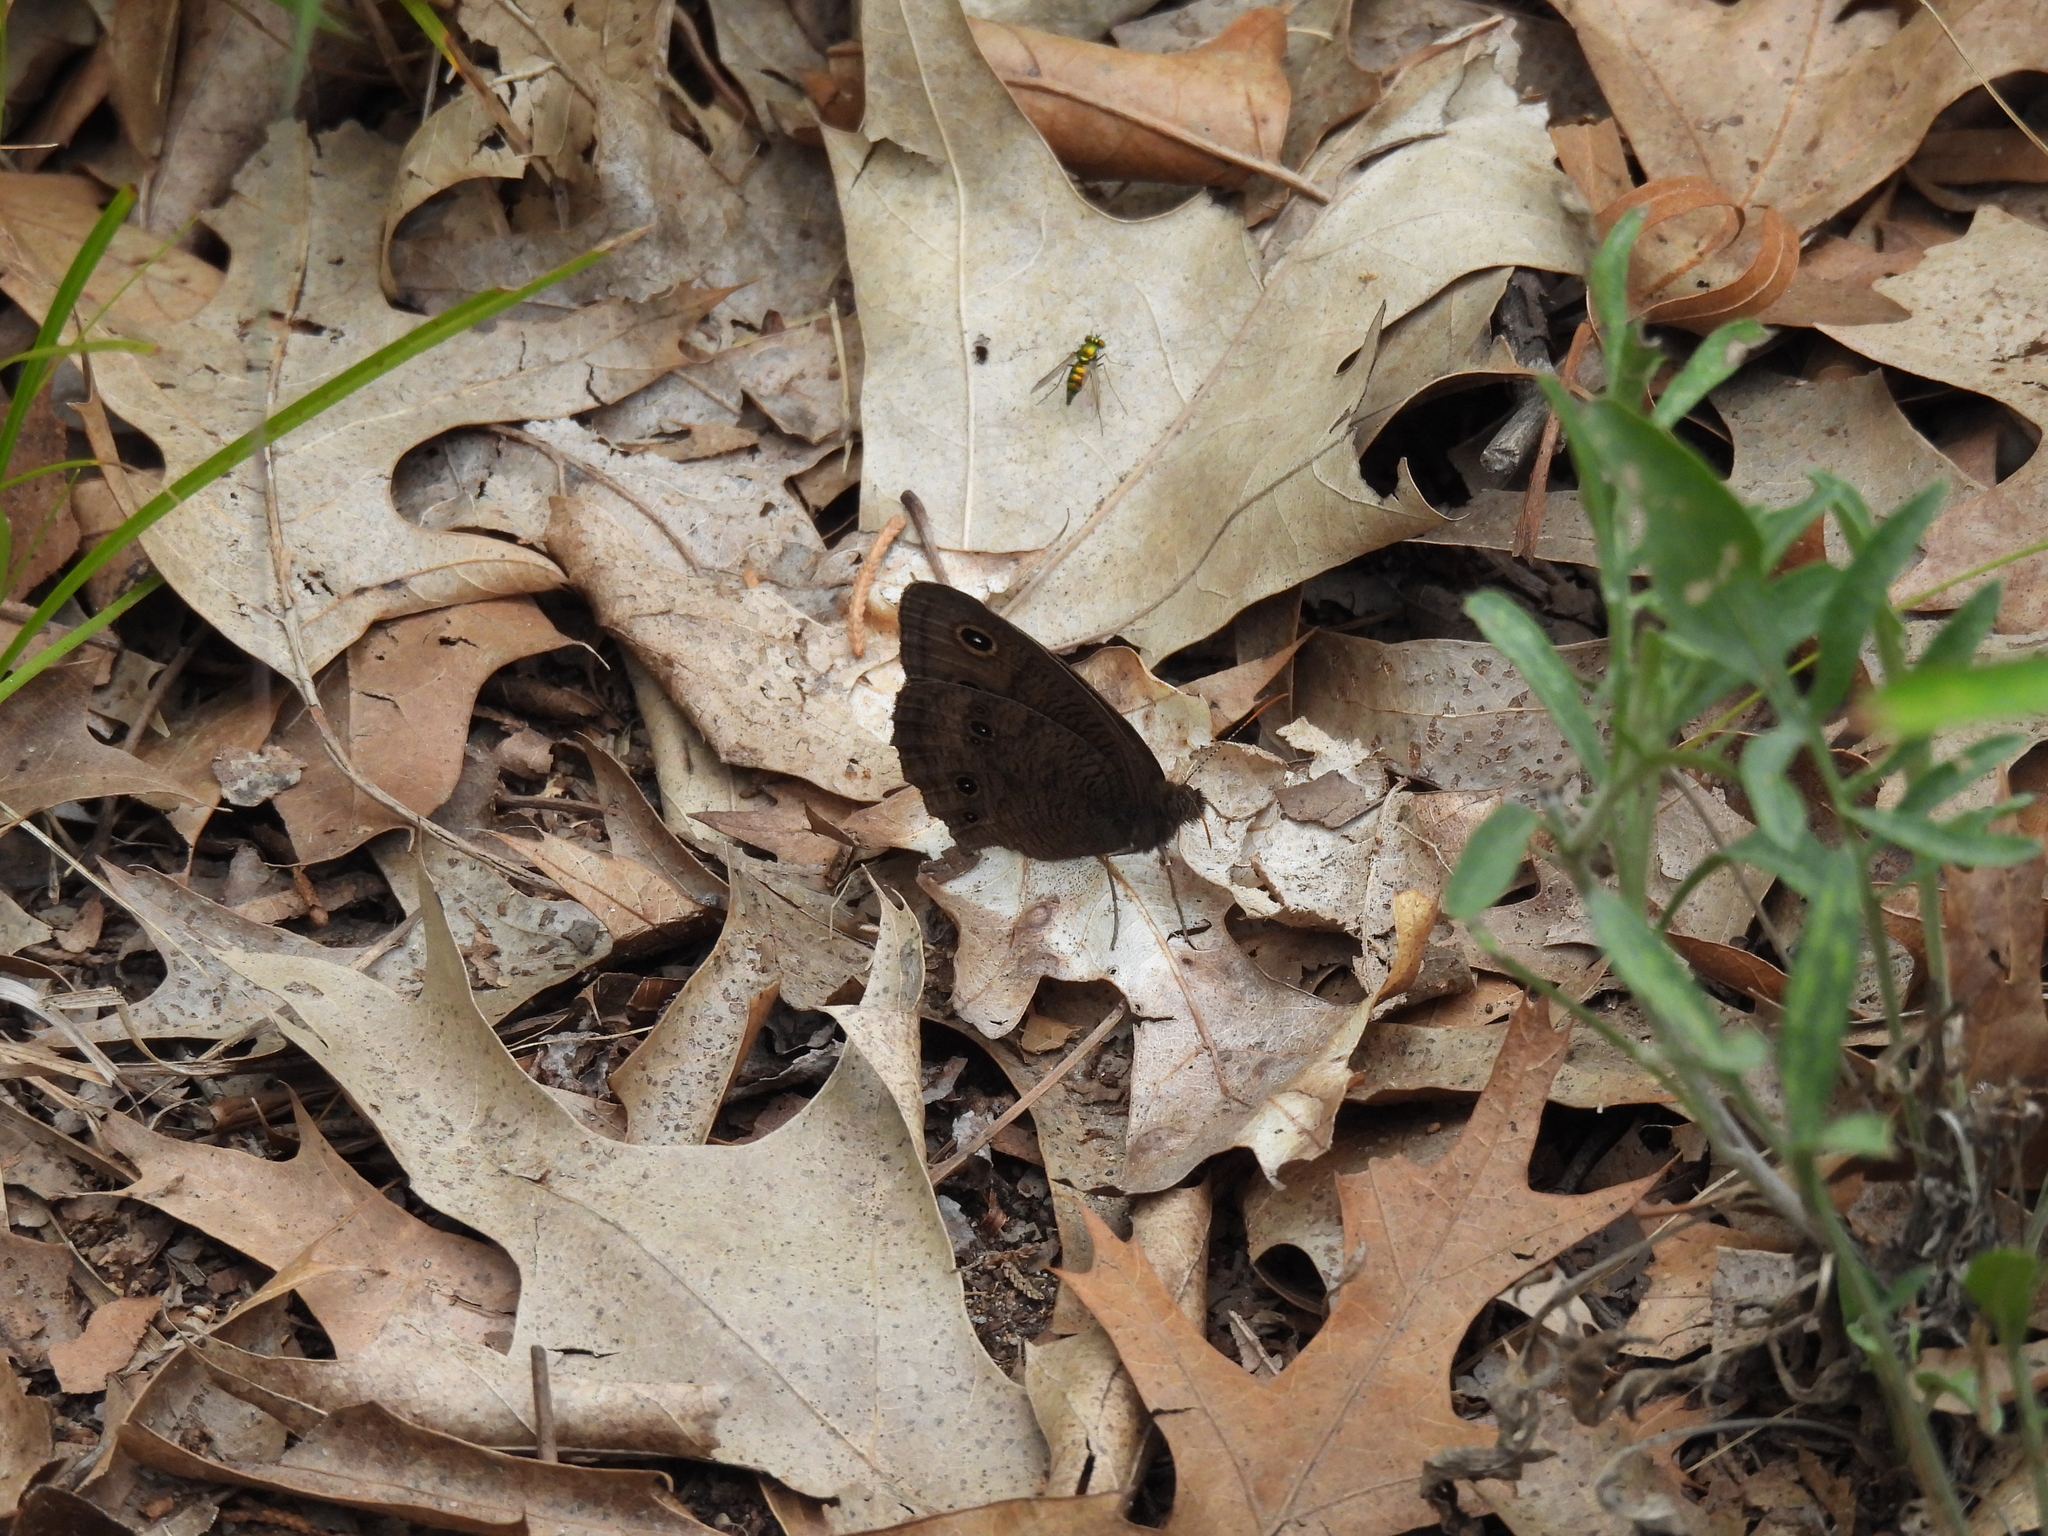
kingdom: Animalia
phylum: Arthropoda
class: Insecta
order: Lepidoptera
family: Nymphalidae
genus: Cercyonis
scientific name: Cercyonis pegala
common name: Common wood-nymph
